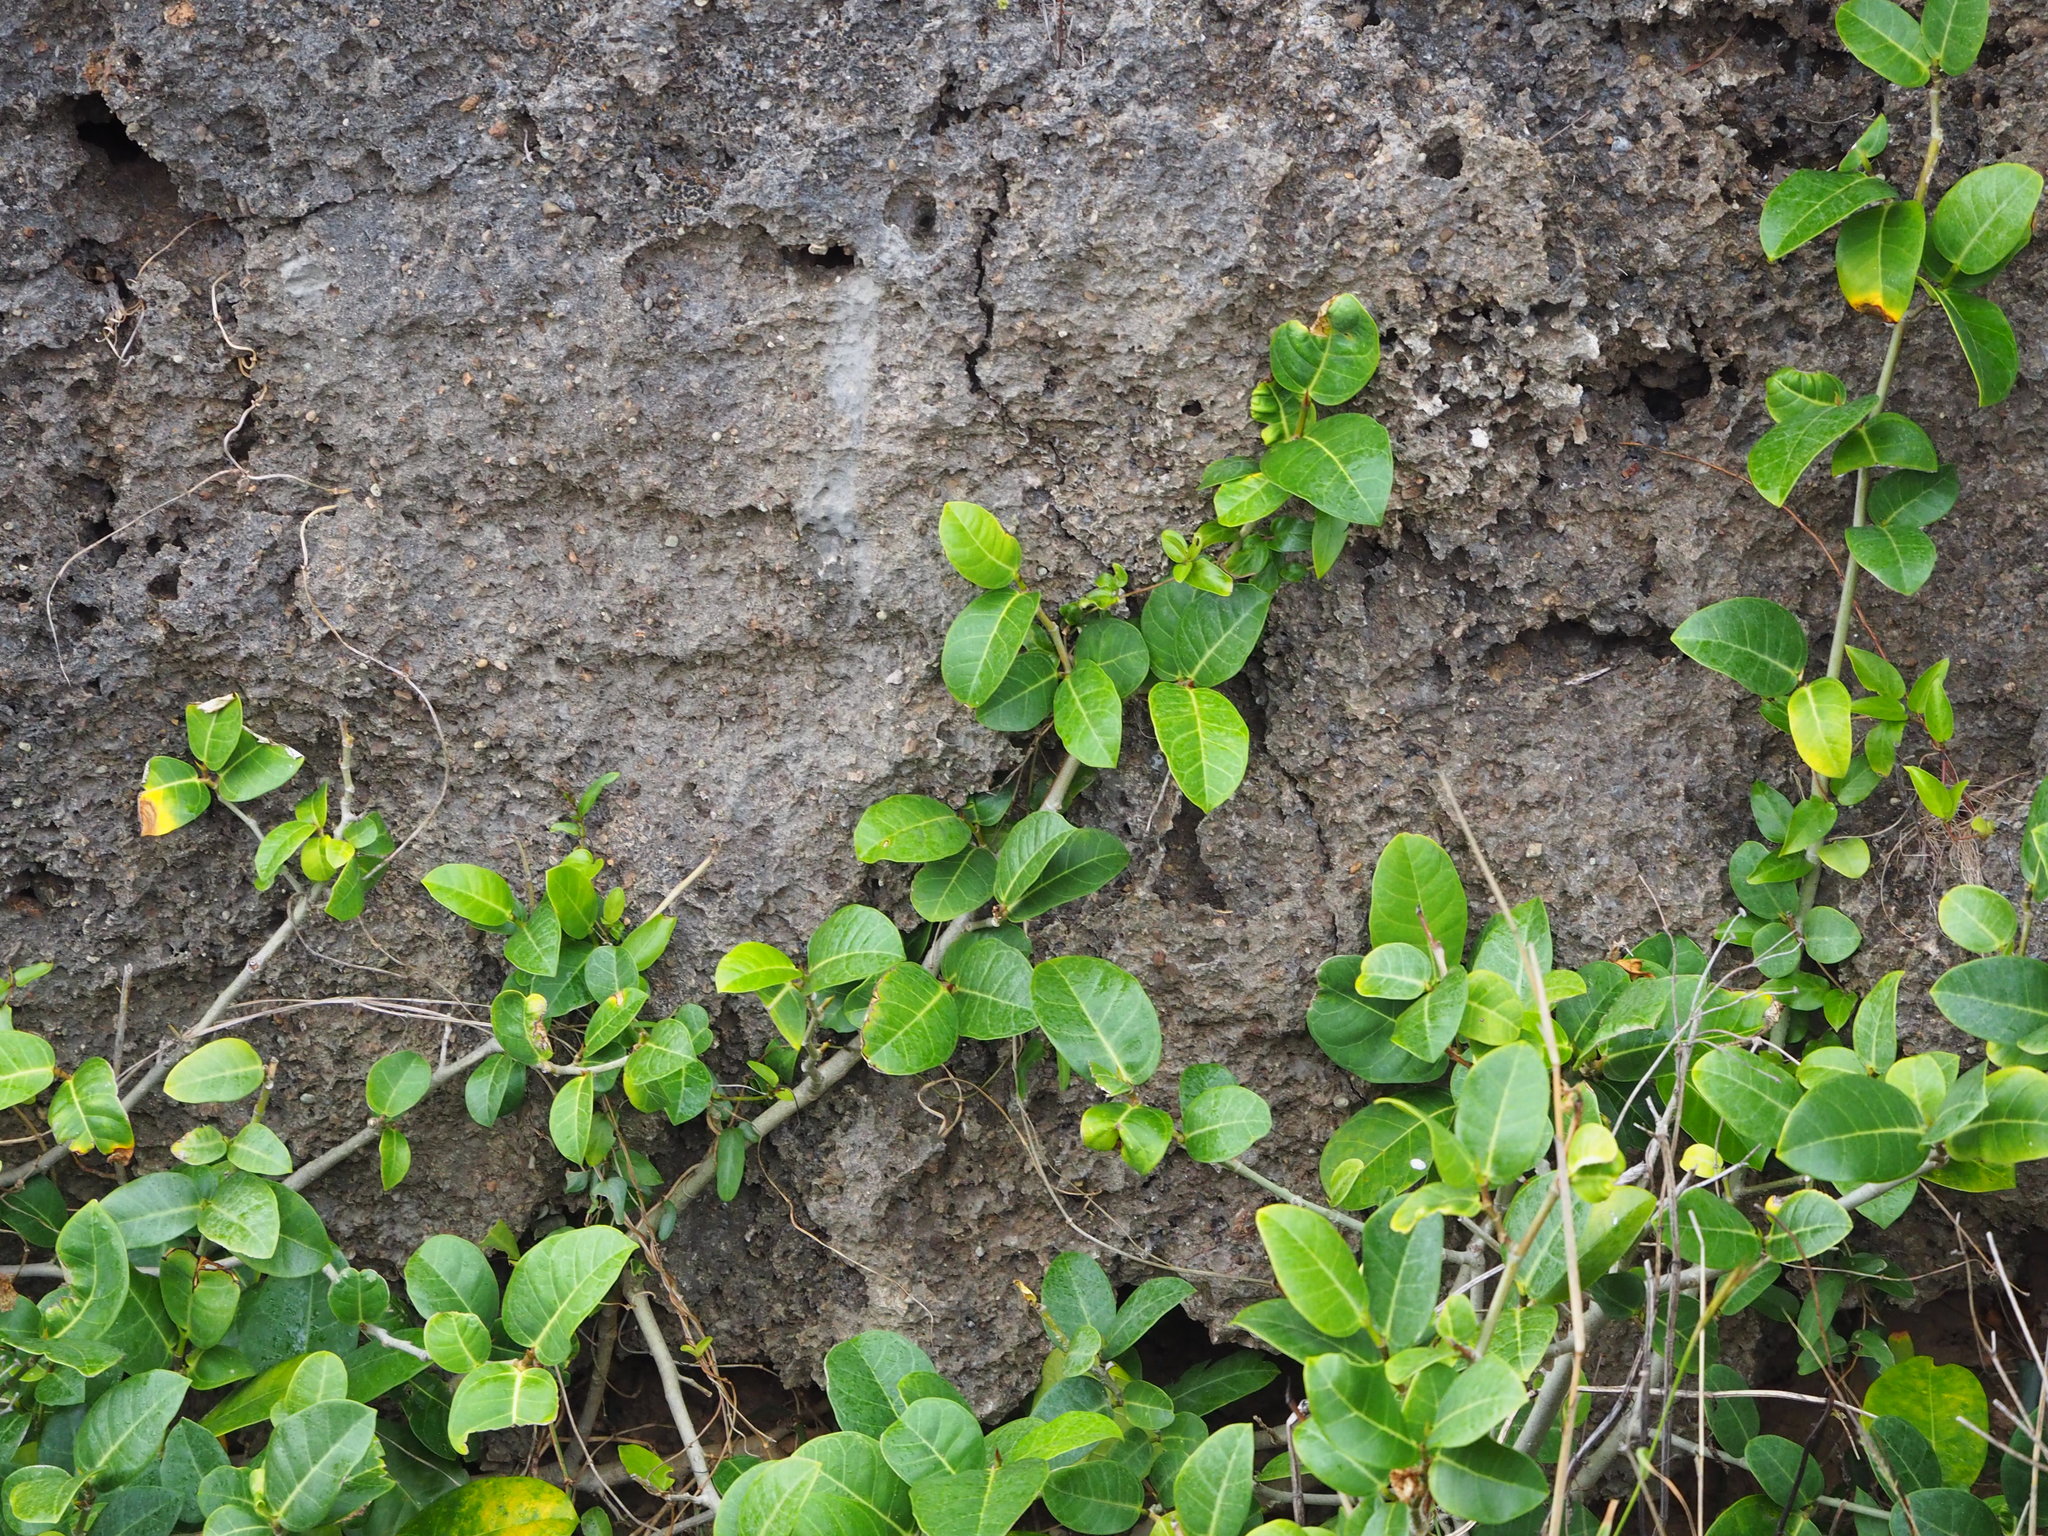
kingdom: Plantae
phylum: Tracheophyta
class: Magnoliopsida
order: Rosales
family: Moraceae
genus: Ficus
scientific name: Ficus tinctoria
